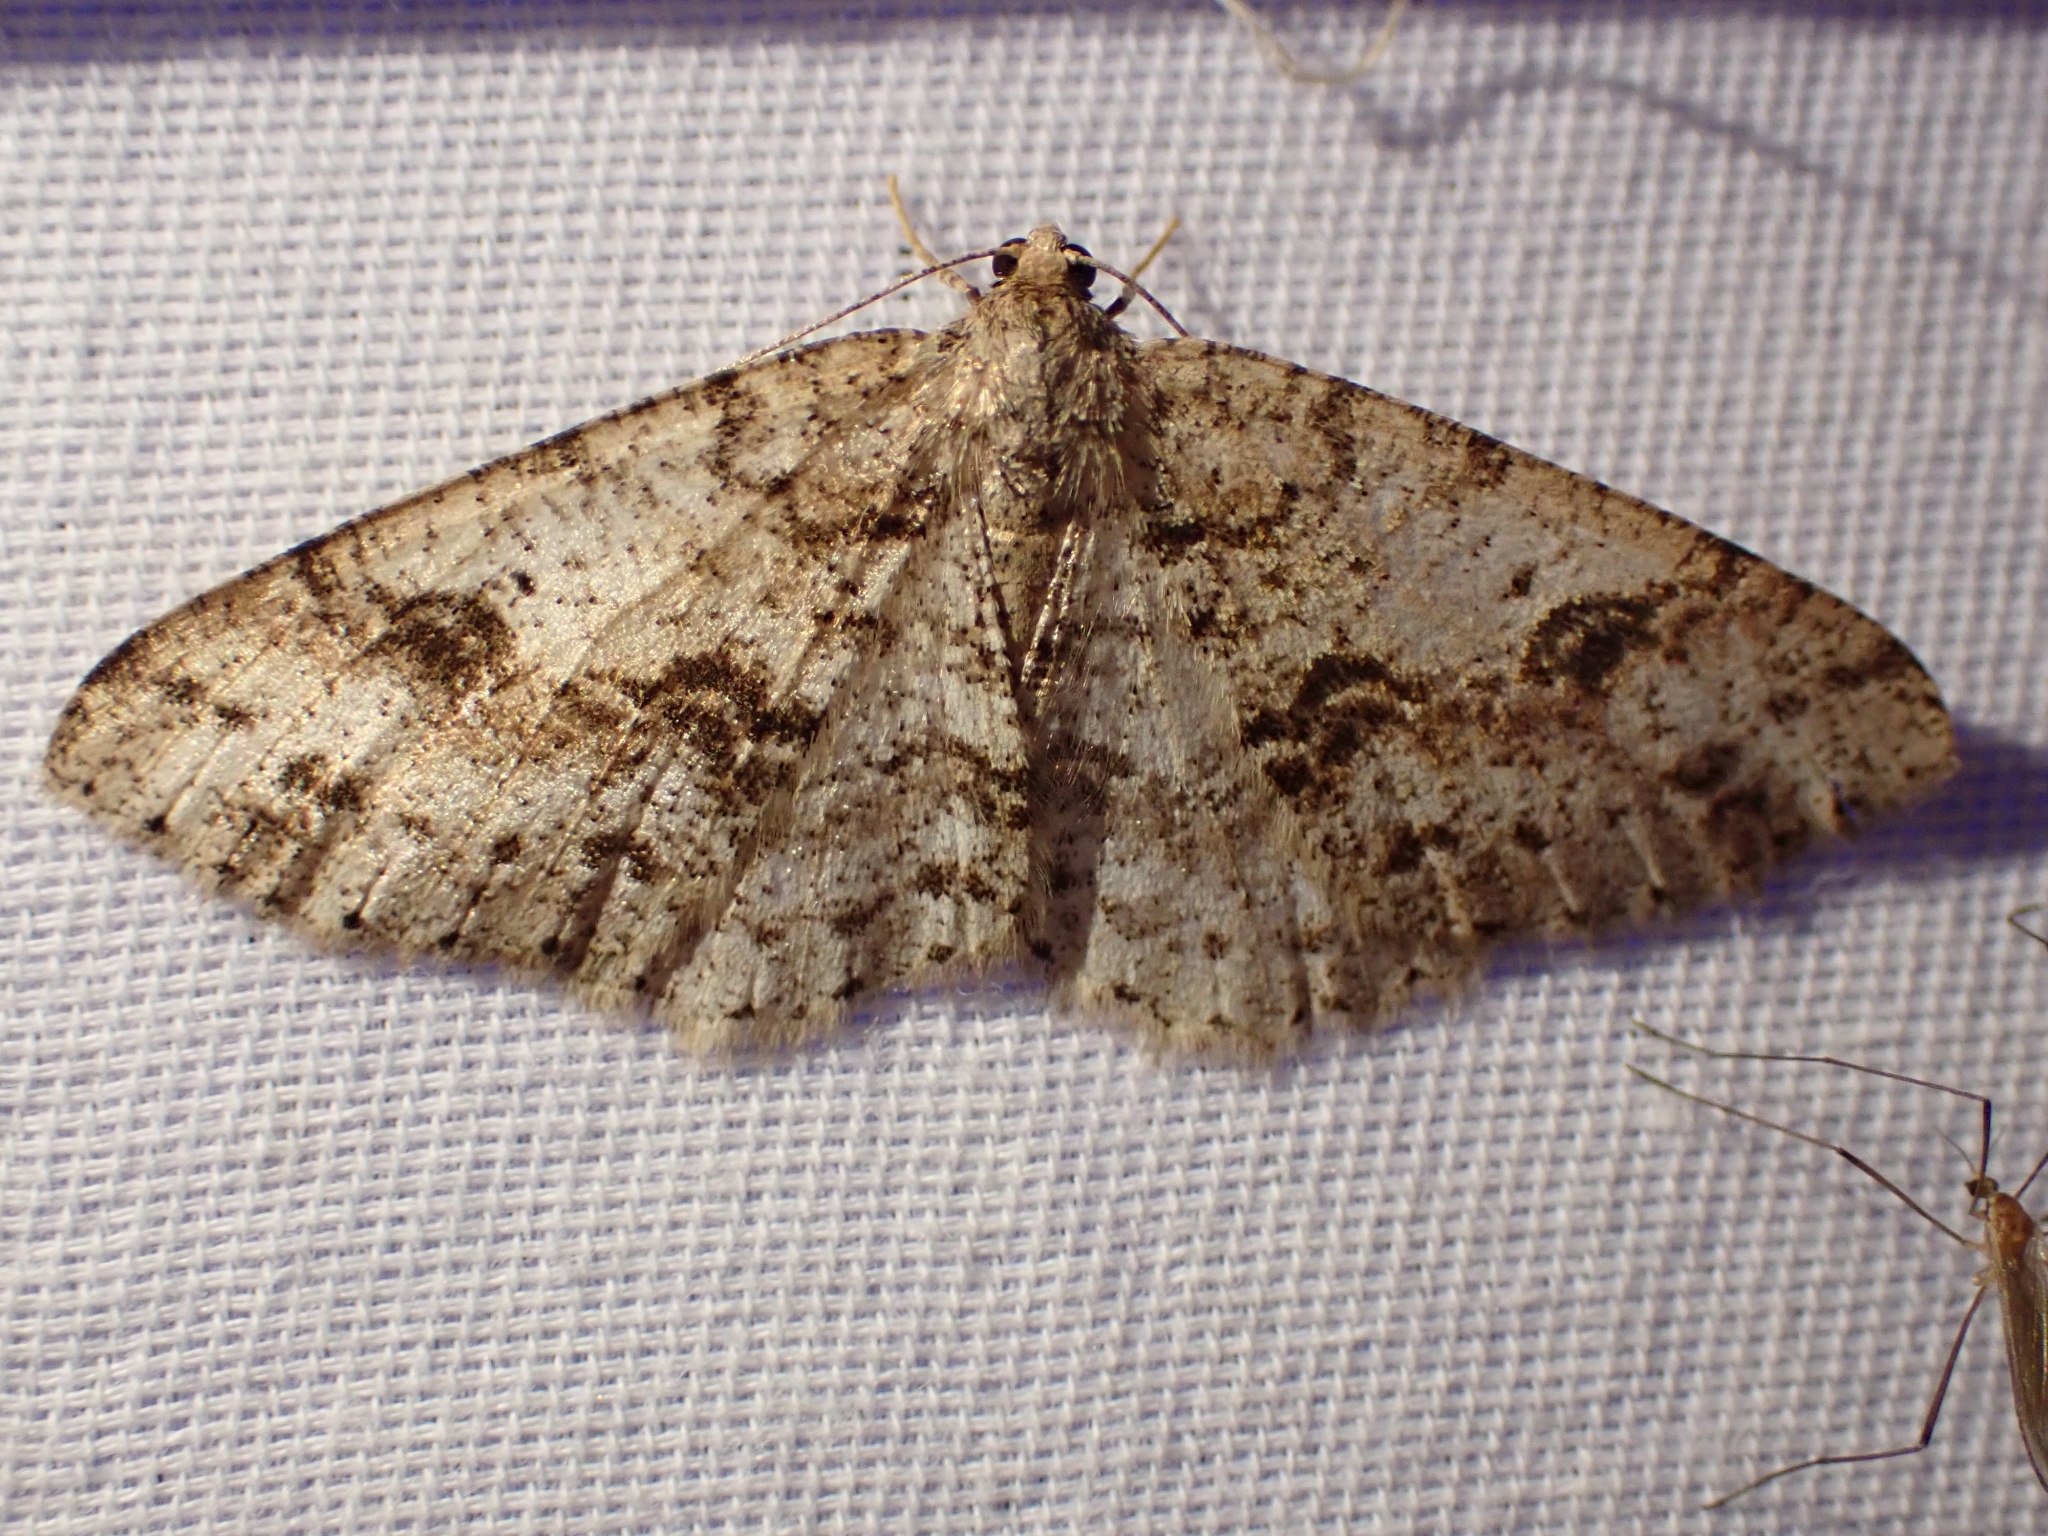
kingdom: Animalia
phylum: Arthropoda
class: Insecta
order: Lepidoptera
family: Geometridae
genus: Melanolophia
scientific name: Melanolophia imitata
